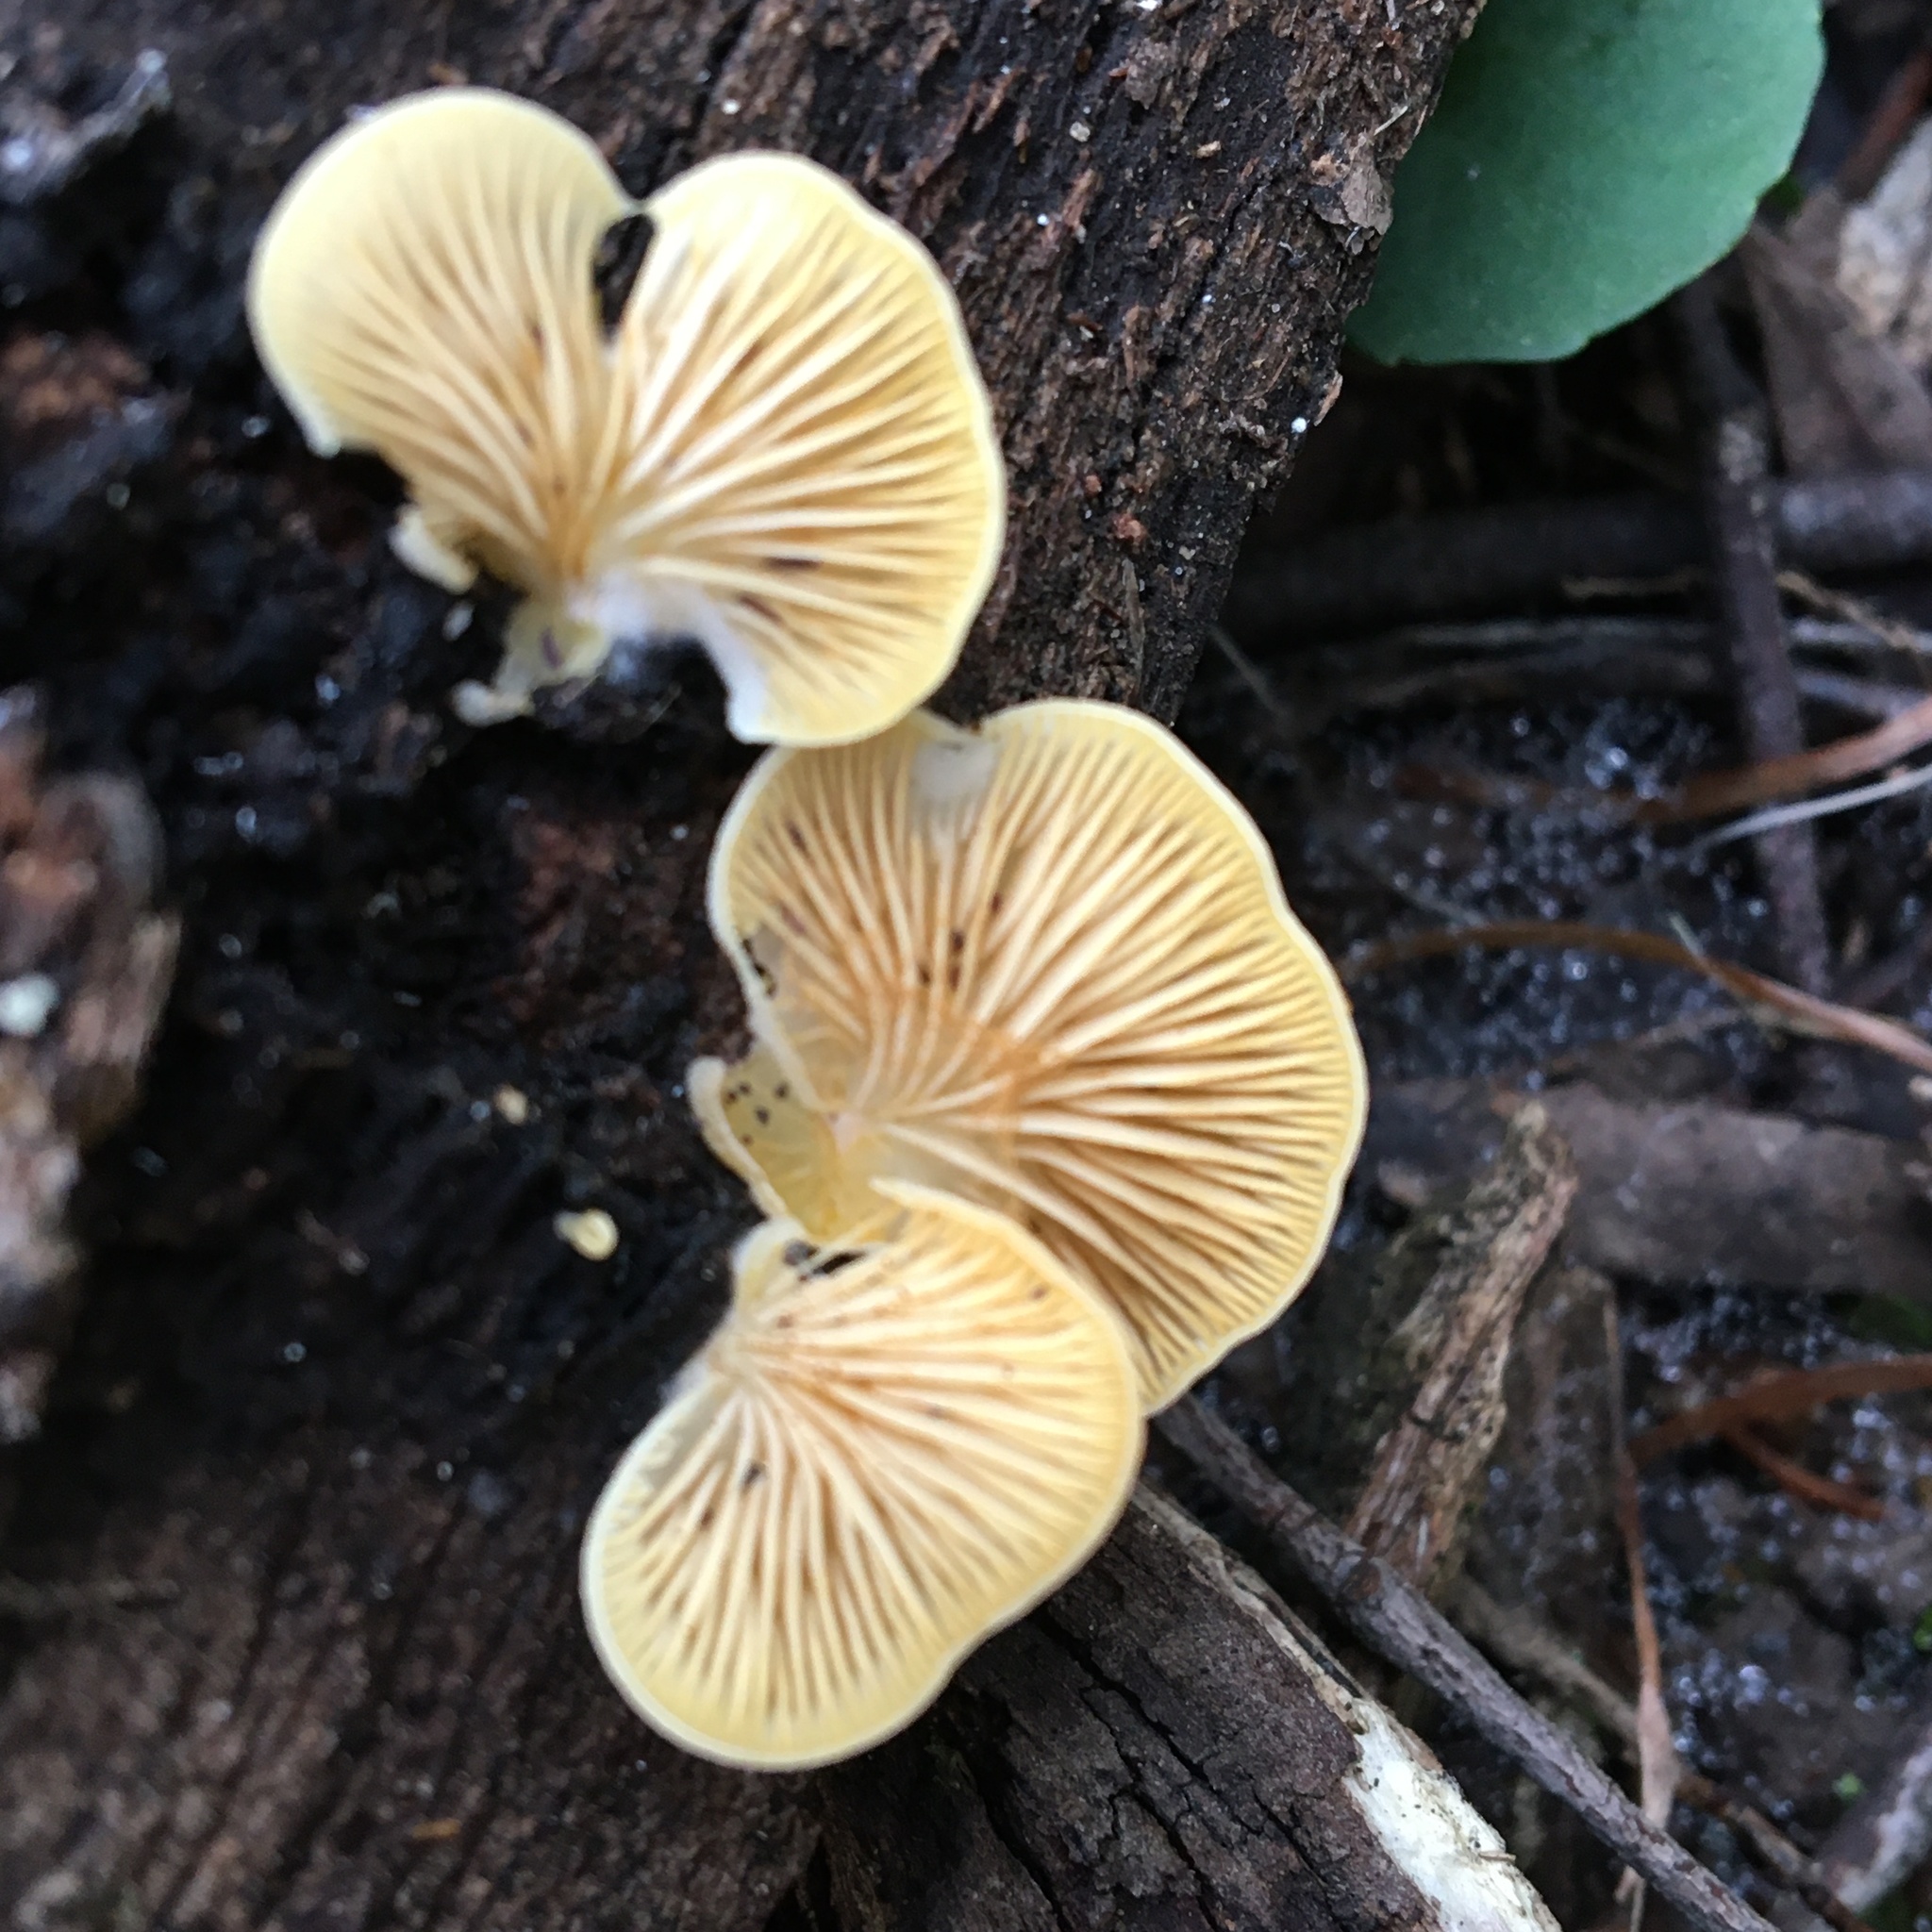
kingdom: Fungi
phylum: Basidiomycota
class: Agaricomycetes
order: Agaricales
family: Crepidotaceae
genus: Crepidotus
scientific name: Crepidotus nephrodes
